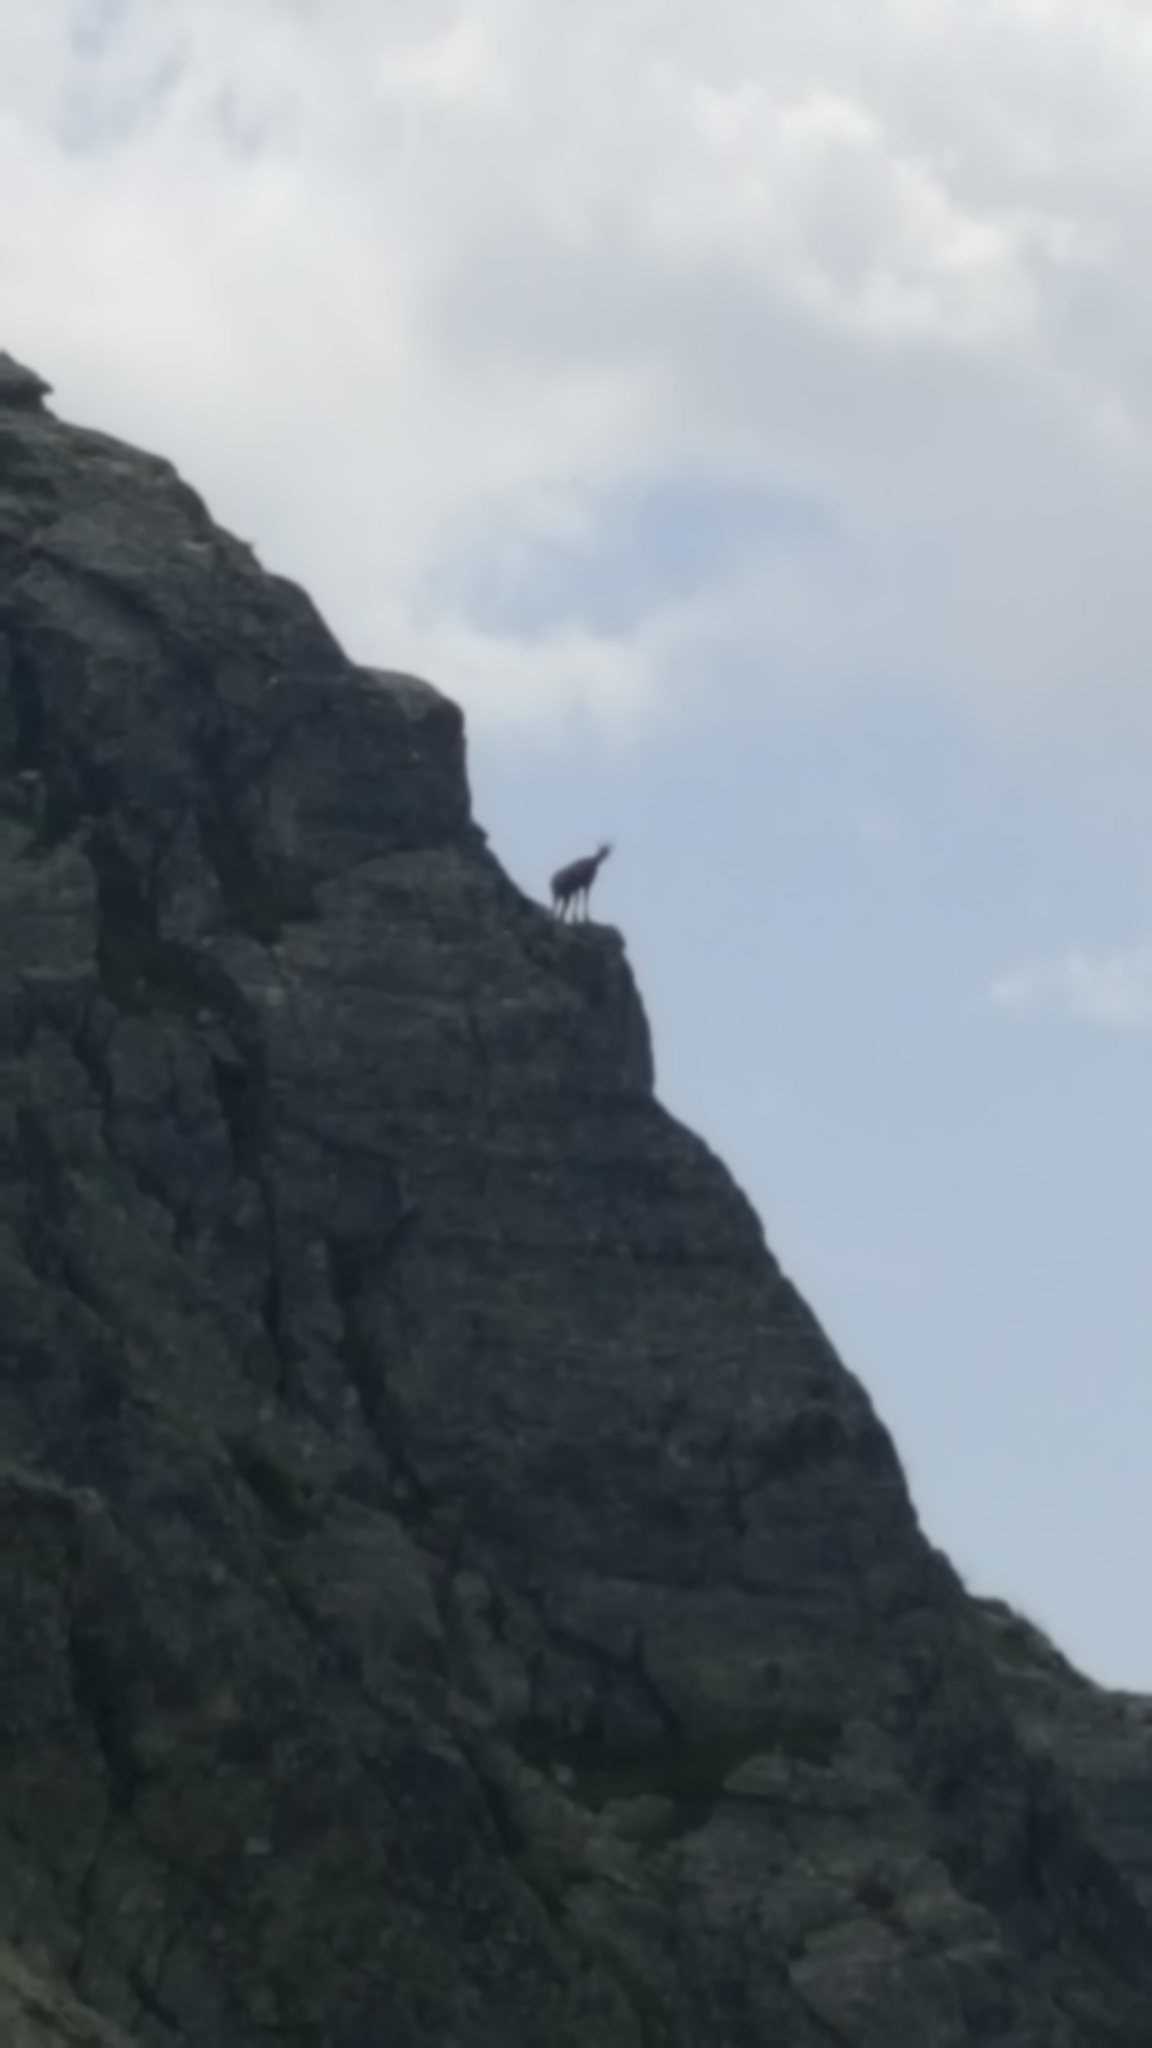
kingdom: Animalia
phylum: Chordata
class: Mammalia
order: Artiodactyla
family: Bovidae
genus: Rupicapra
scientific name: Rupicapra rupicapra
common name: Chamois
